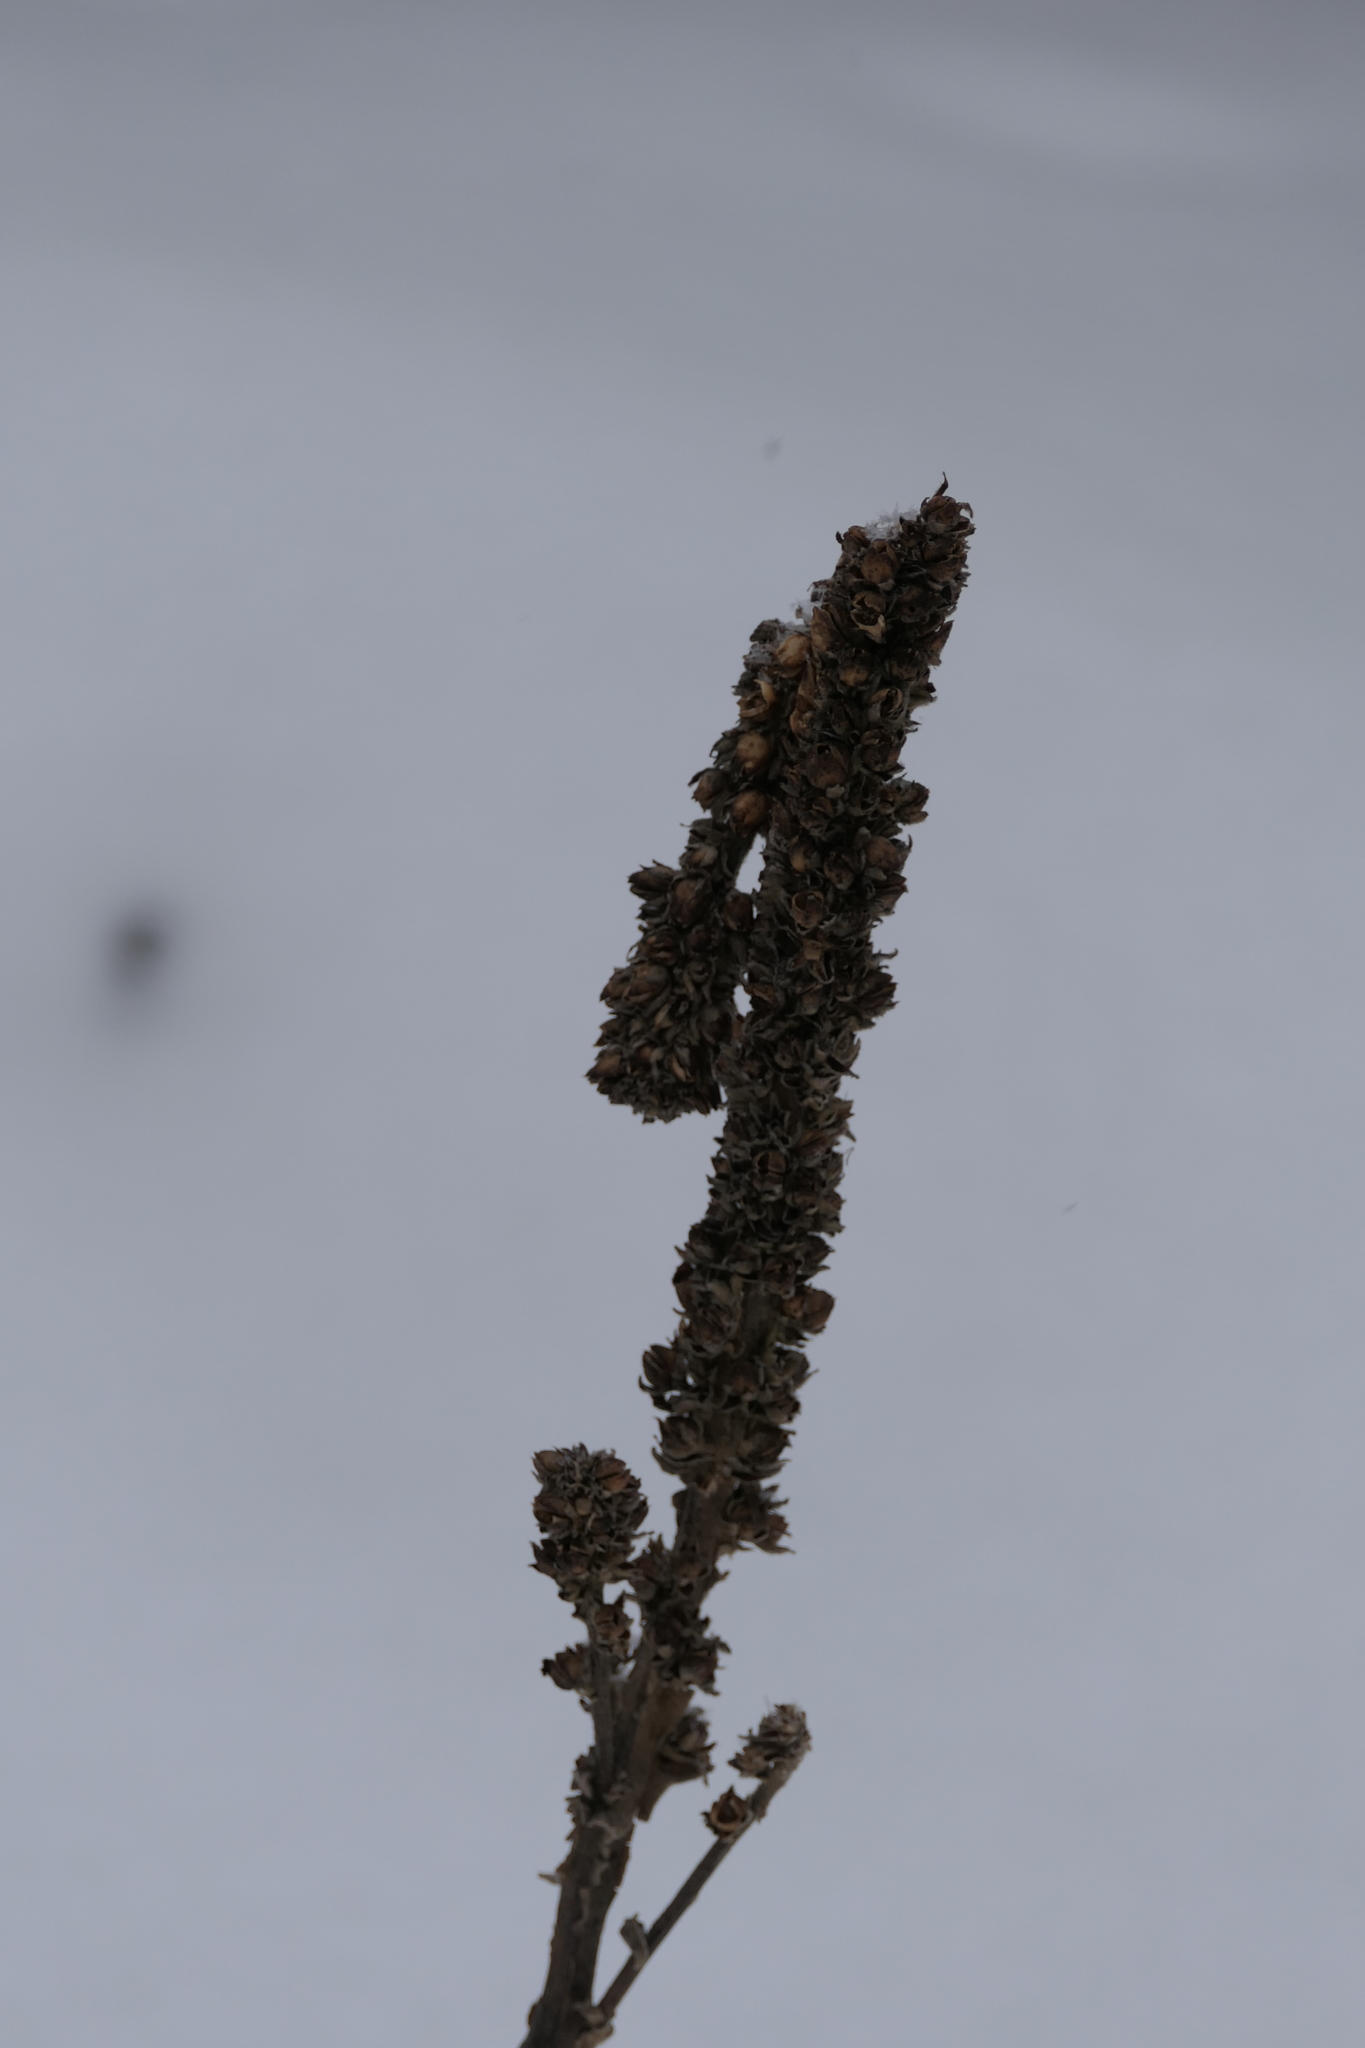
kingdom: Plantae
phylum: Tracheophyta
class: Magnoliopsida
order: Lamiales
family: Scrophulariaceae
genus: Verbascum
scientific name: Verbascum thapsus
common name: Common mullein
